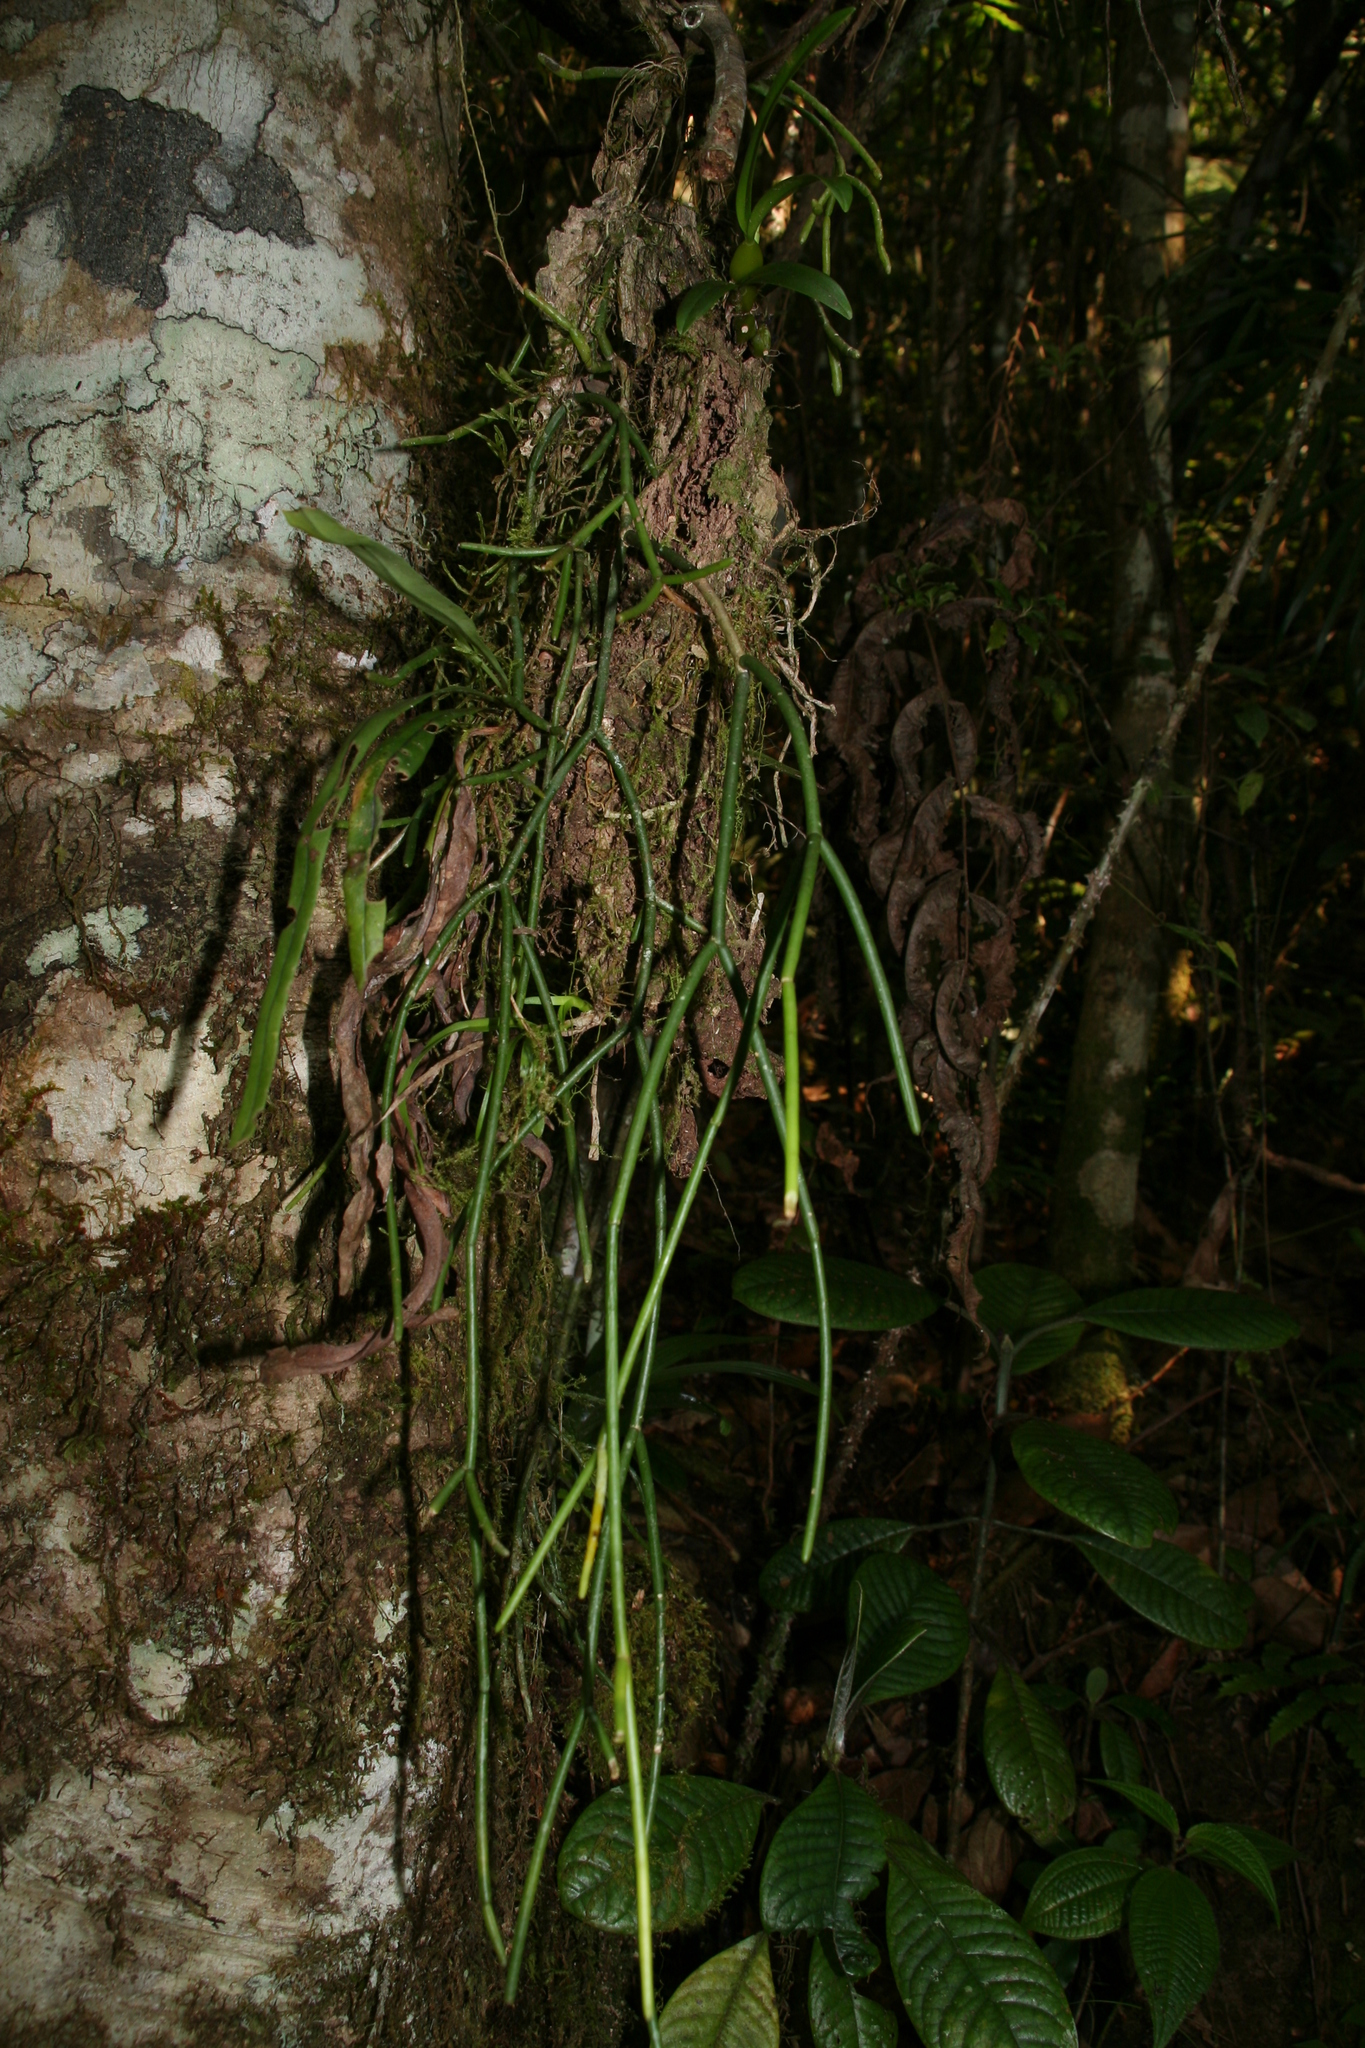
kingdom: Plantae
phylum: Tracheophyta
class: Magnoliopsida
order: Caryophyllales
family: Cactaceae
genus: Rhipsalis
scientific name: Rhipsalis baccifera
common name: Mistletoe cactus
